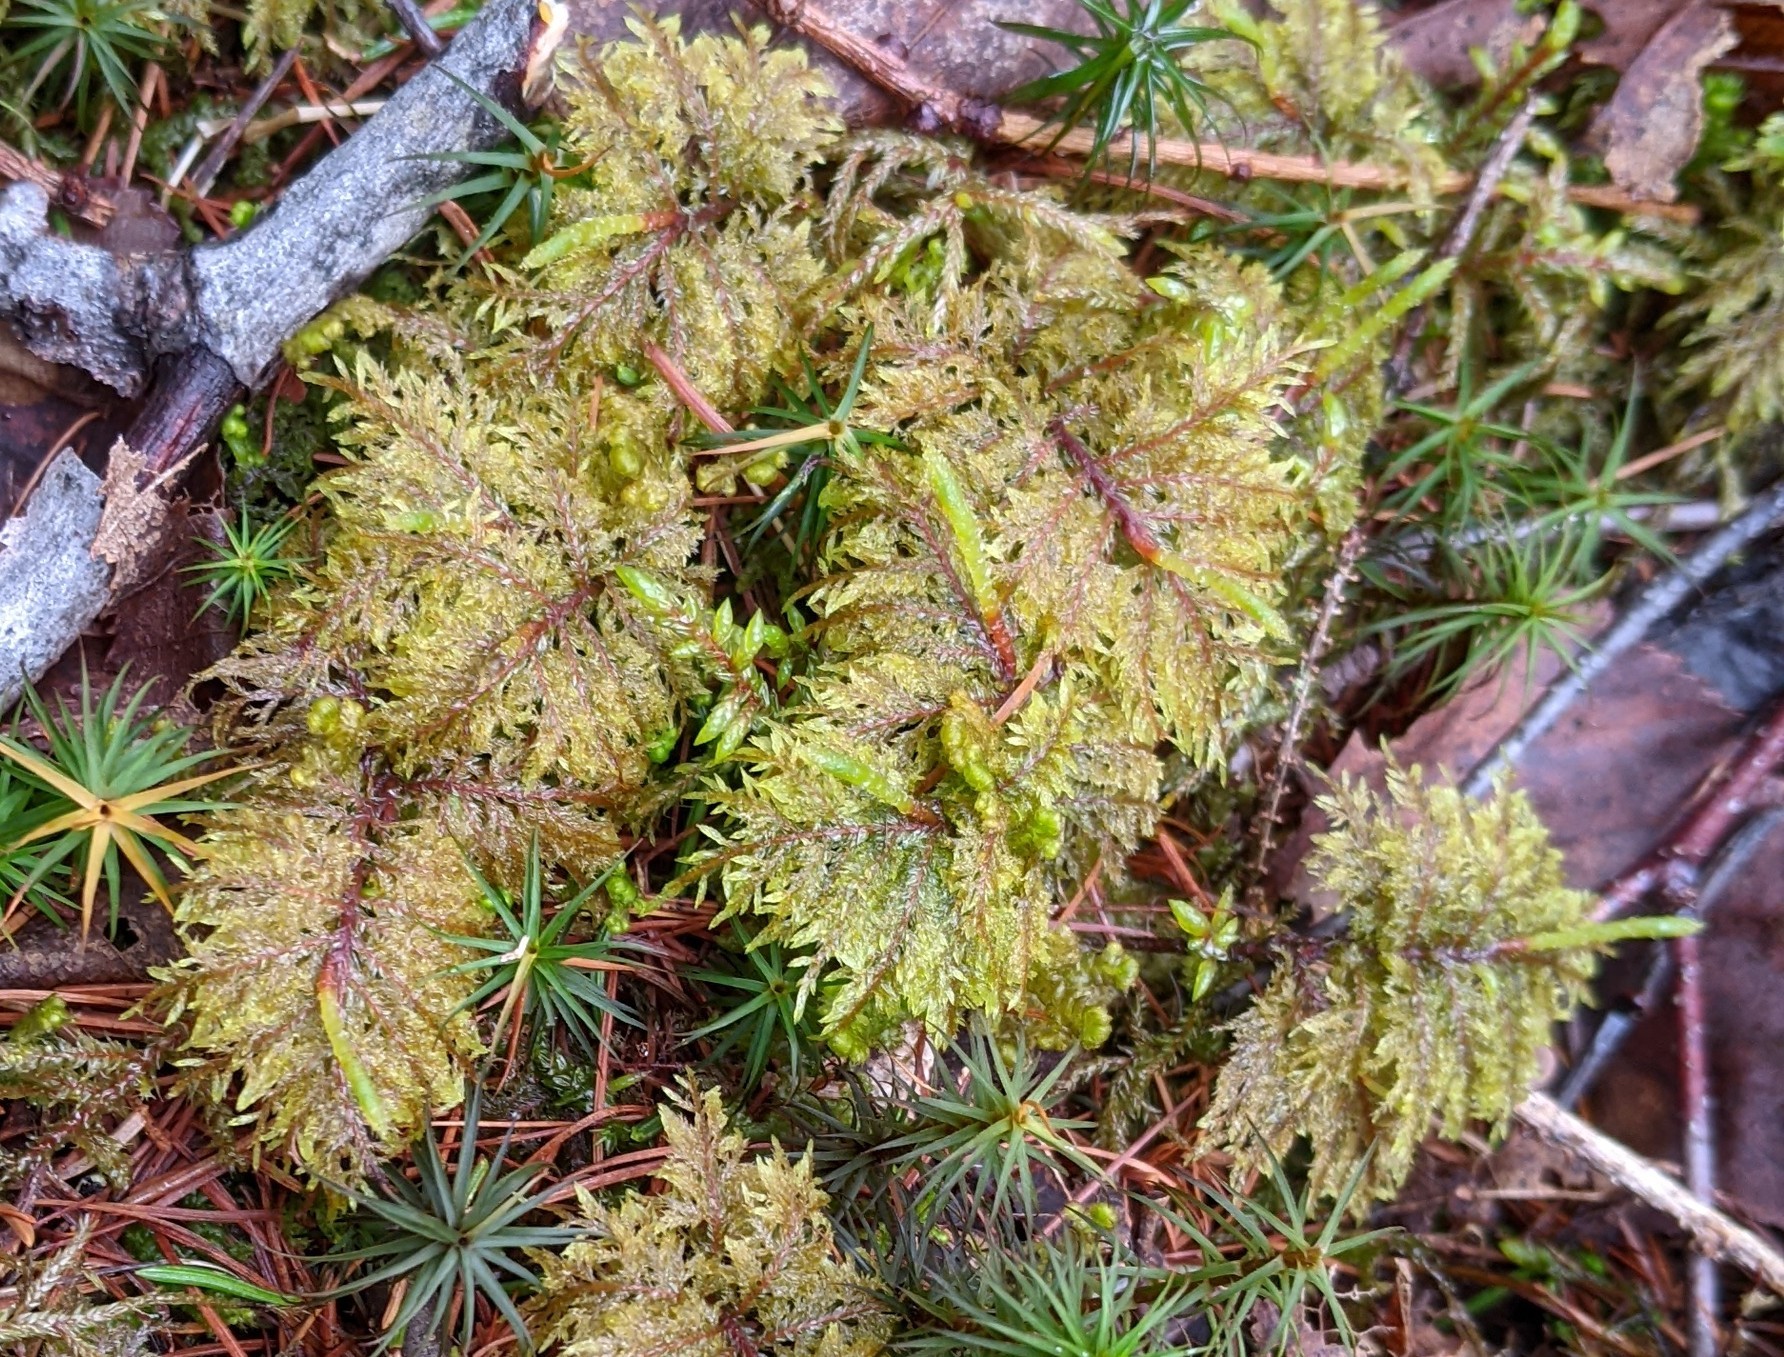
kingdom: Plantae
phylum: Bryophyta
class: Bryopsida
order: Hypnales
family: Hylocomiaceae
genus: Hylocomium
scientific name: Hylocomium splendens
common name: Stairstep moss
